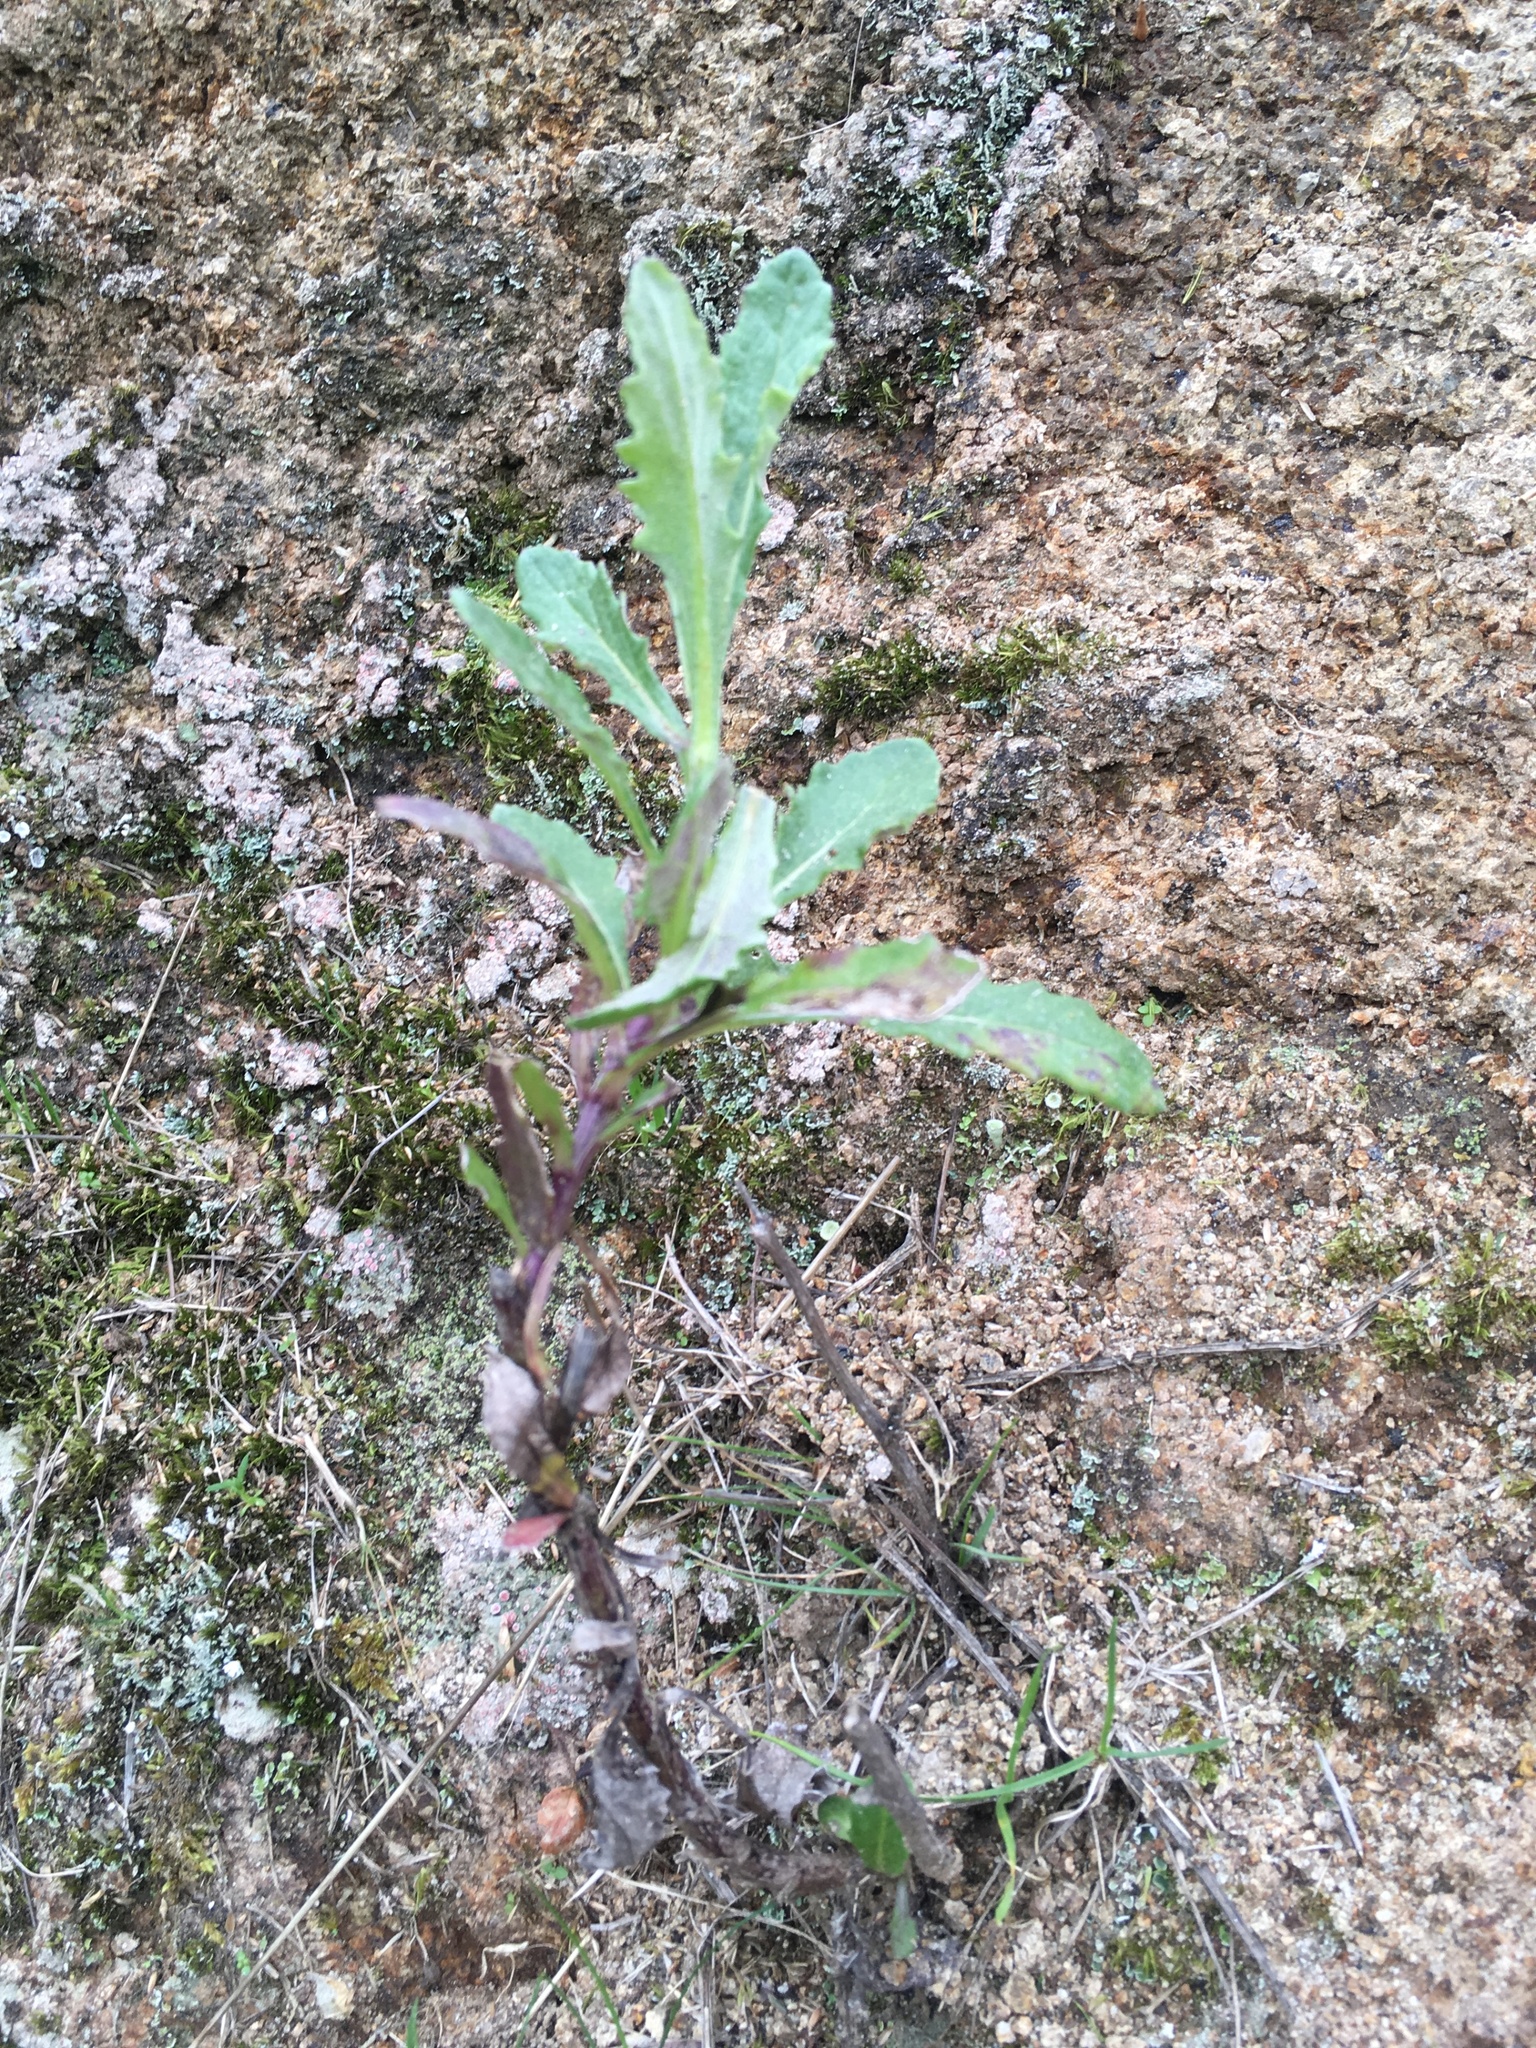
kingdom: Plantae
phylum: Tracheophyta
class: Magnoliopsida
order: Asterales
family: Asteraceae
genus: Senecio
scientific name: Senecio glomeratus
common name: Cutleaf burnweed
